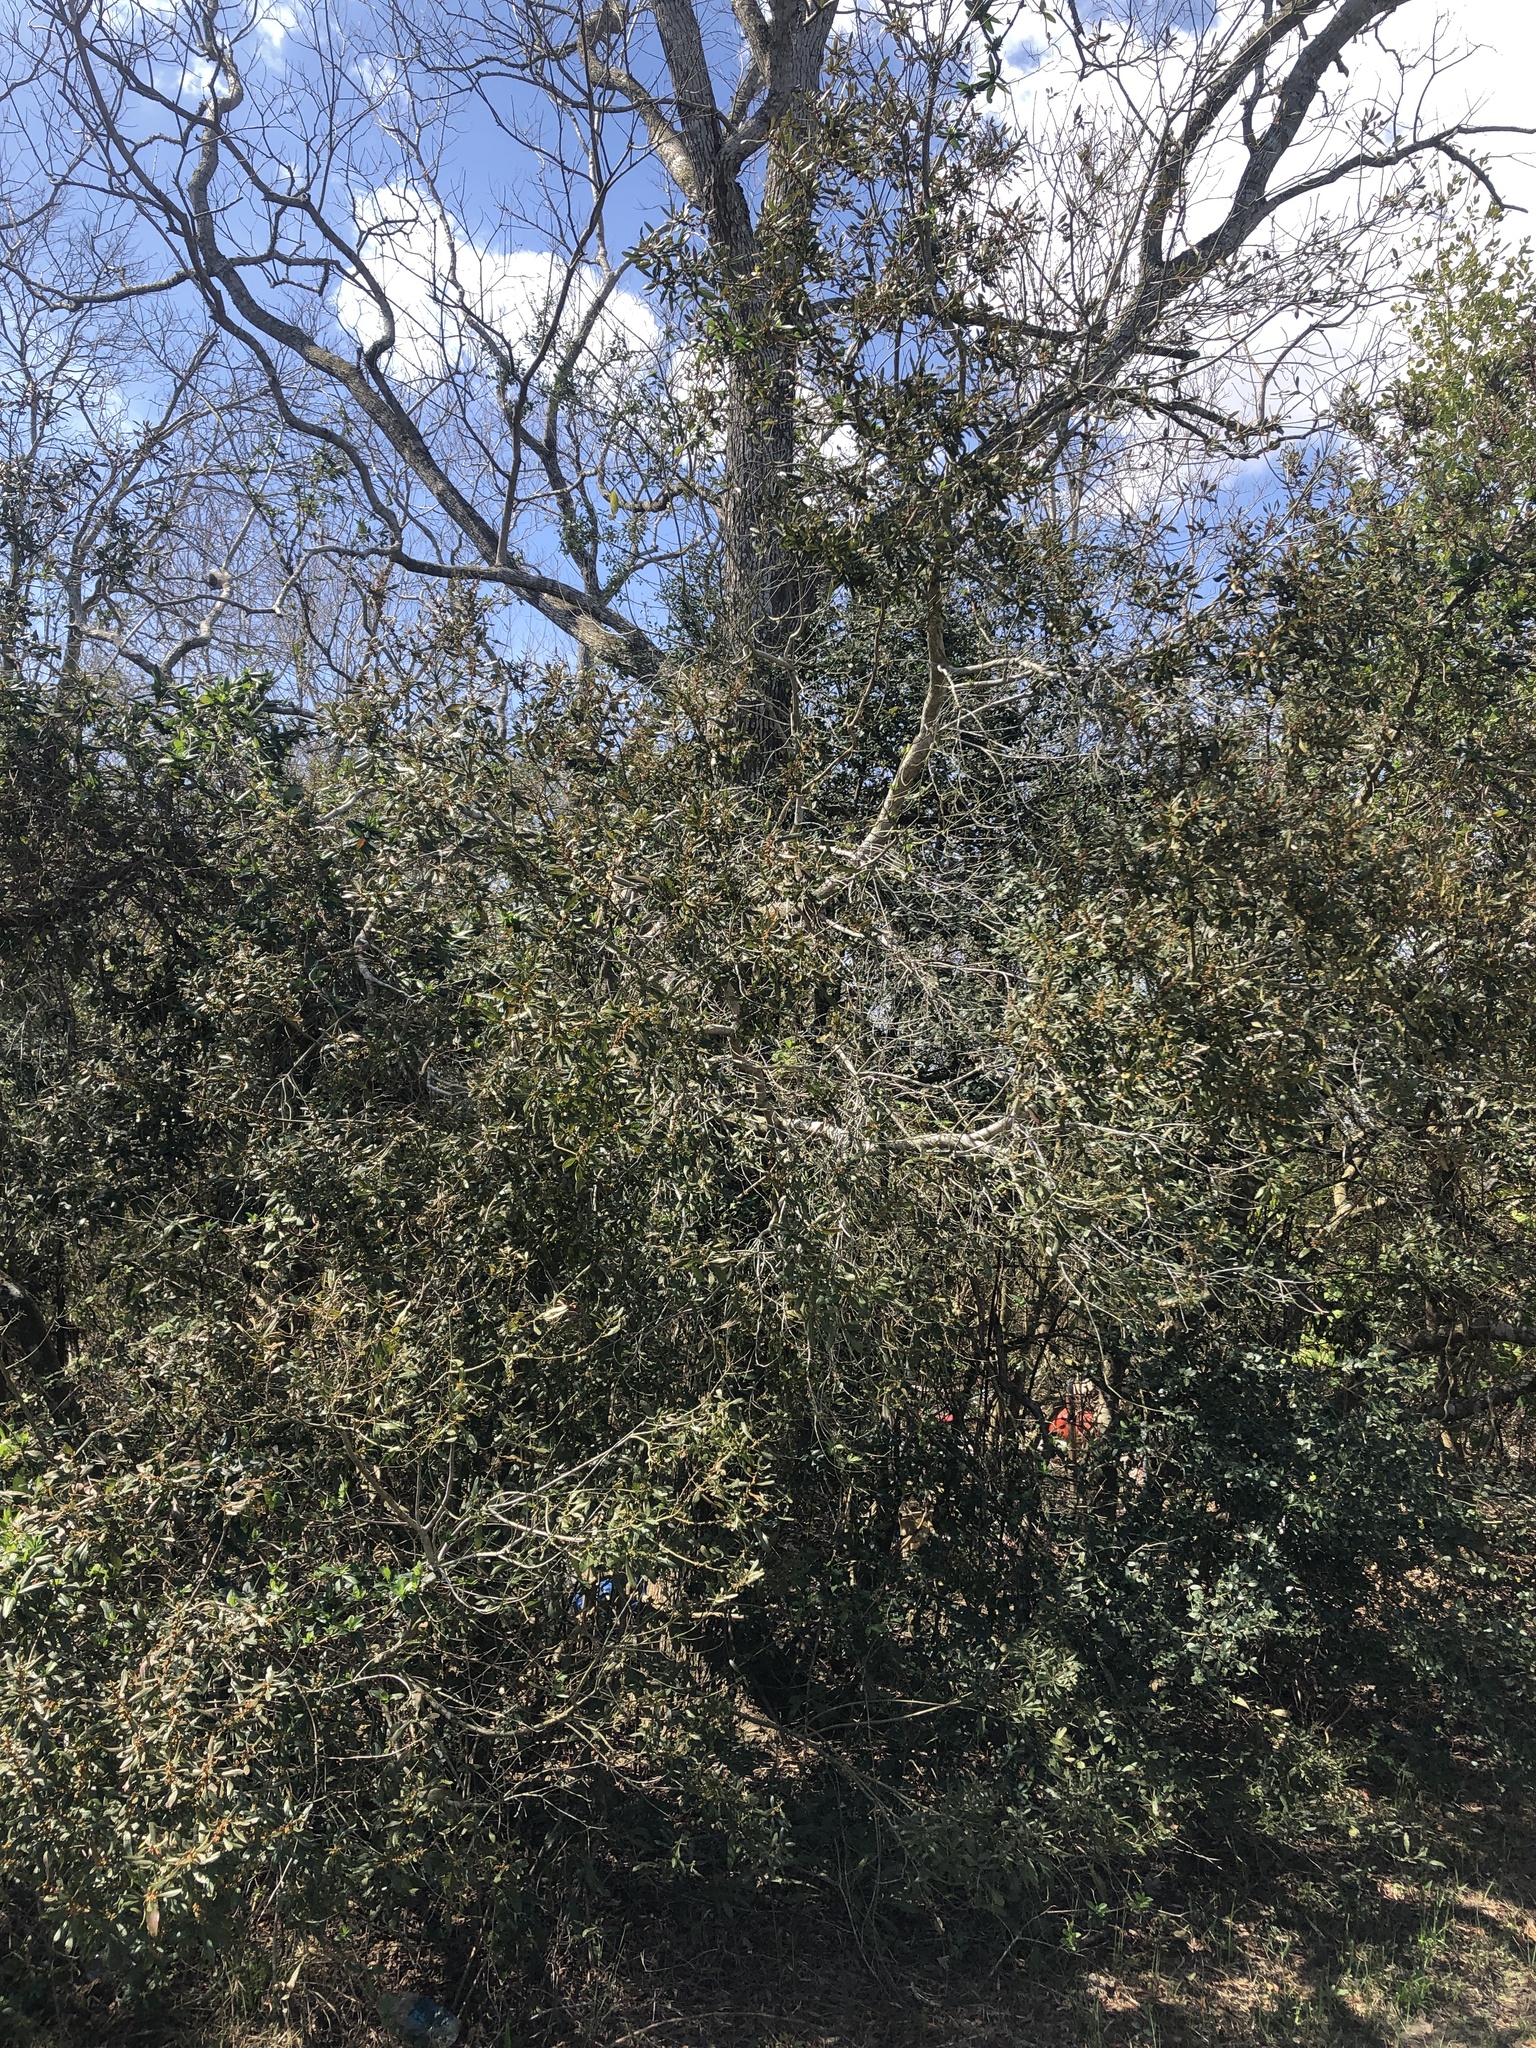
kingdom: Plantae
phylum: Tracheophyta
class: Magnoliopsida
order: Fagales
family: Myricaceae
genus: Morella
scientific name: Morella cerifera
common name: Wax myrtle
